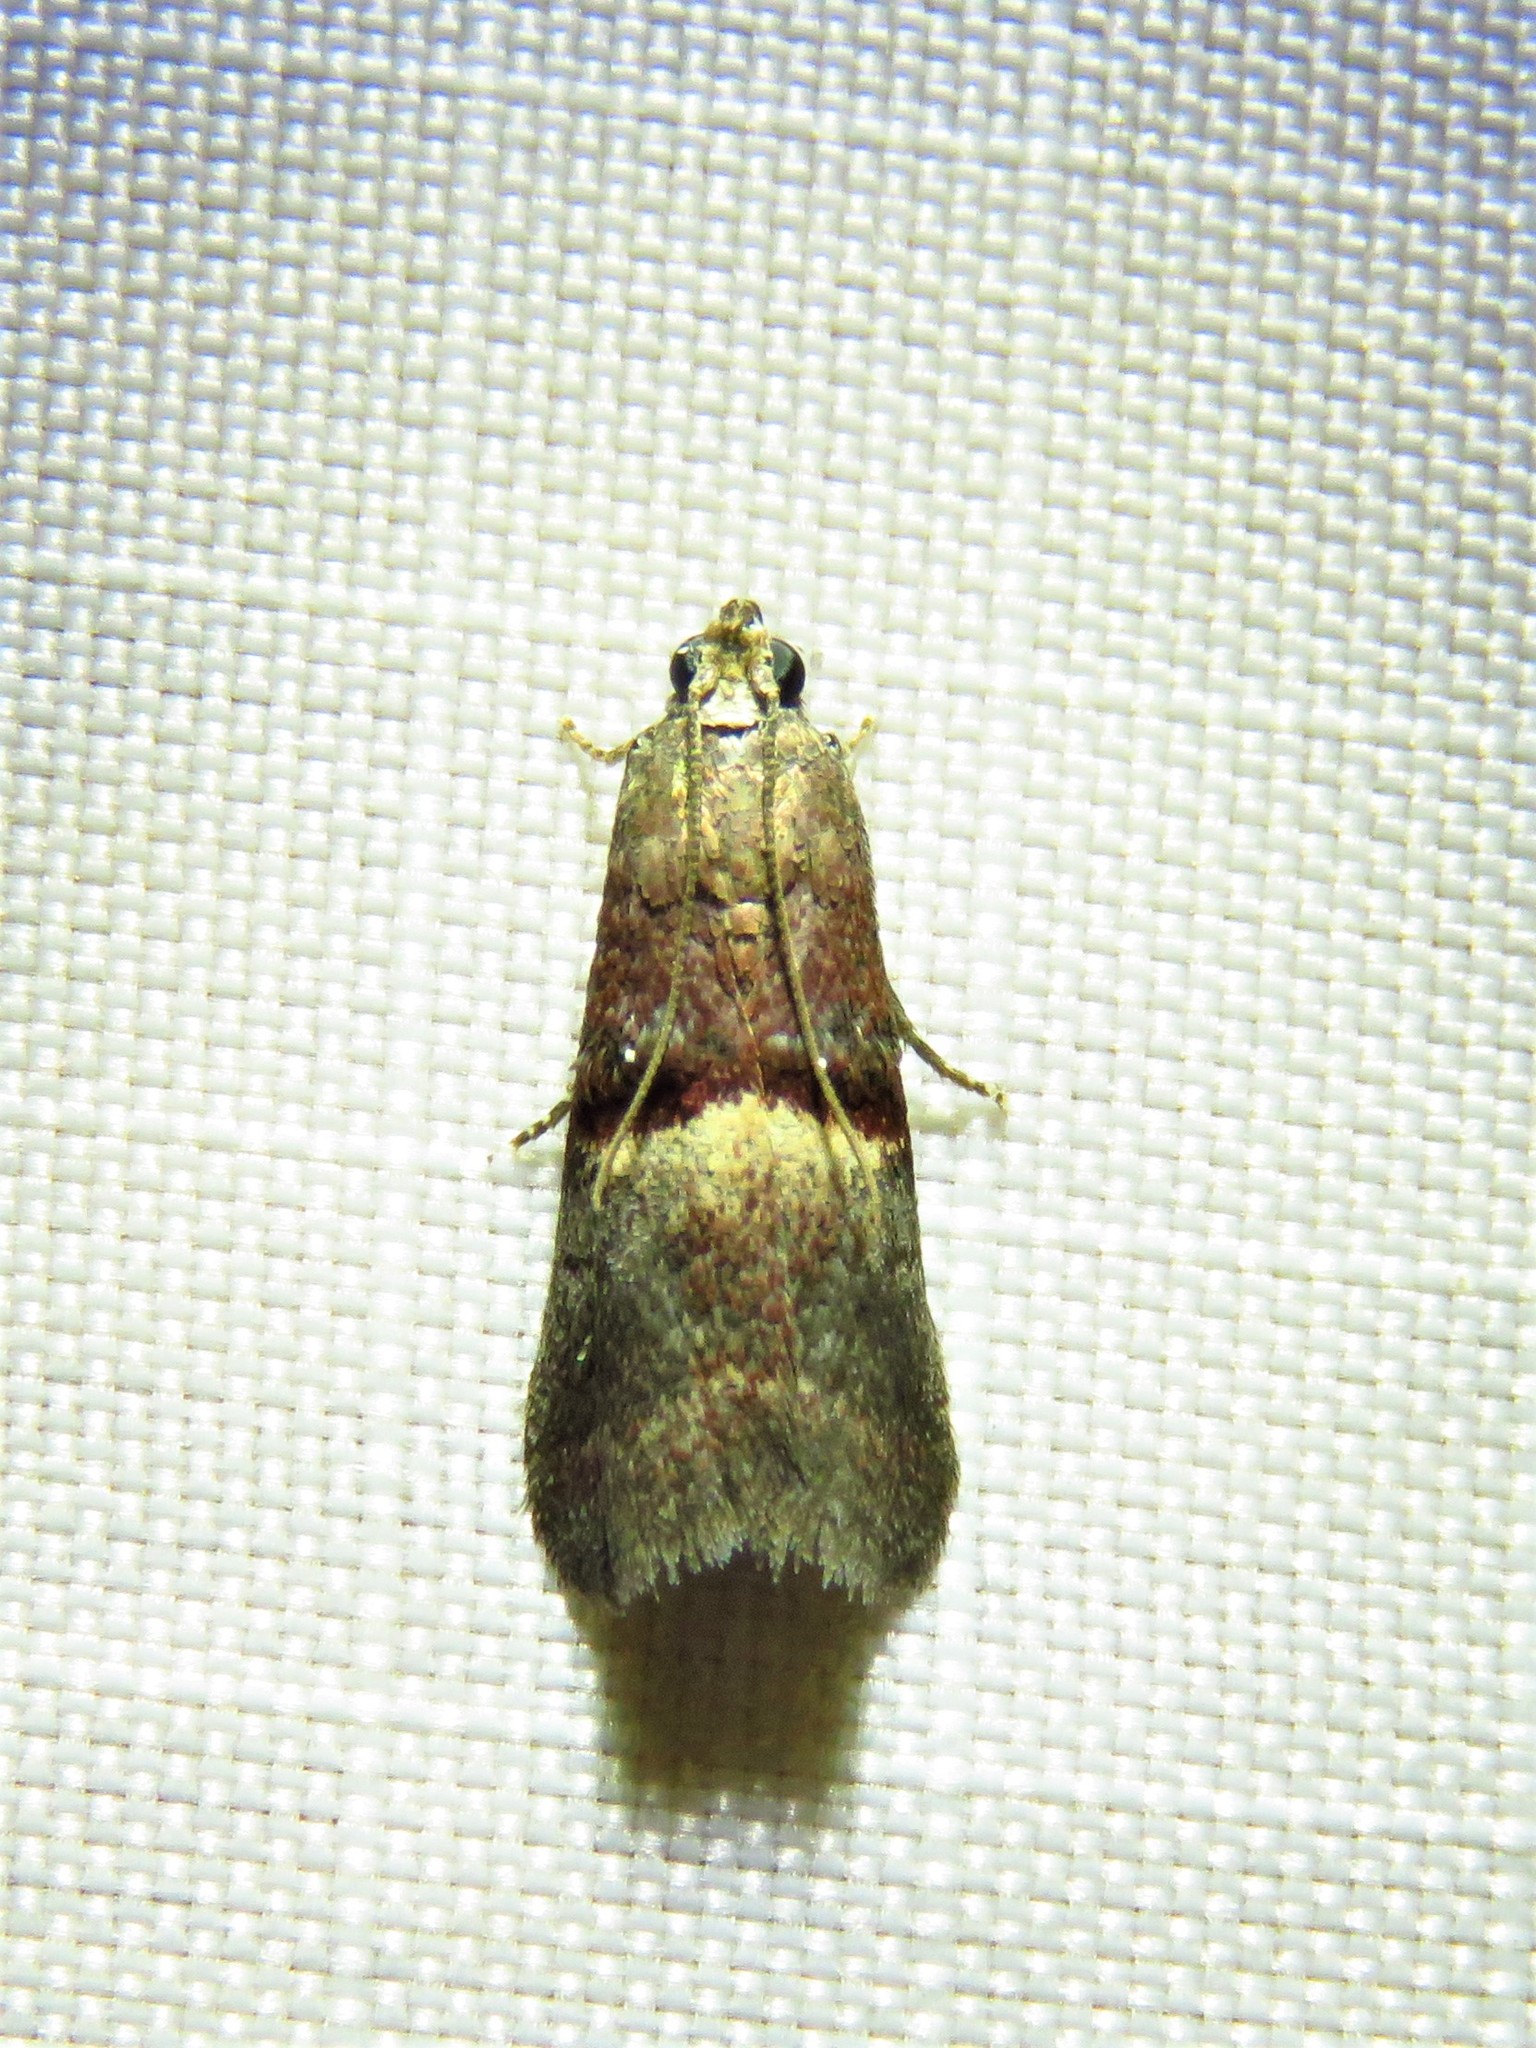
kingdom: Animalia
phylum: Arthropoda
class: Insecta
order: Lepidoptera
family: Pyralidae
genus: Acrobasis
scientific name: Acrobasis exsulella
